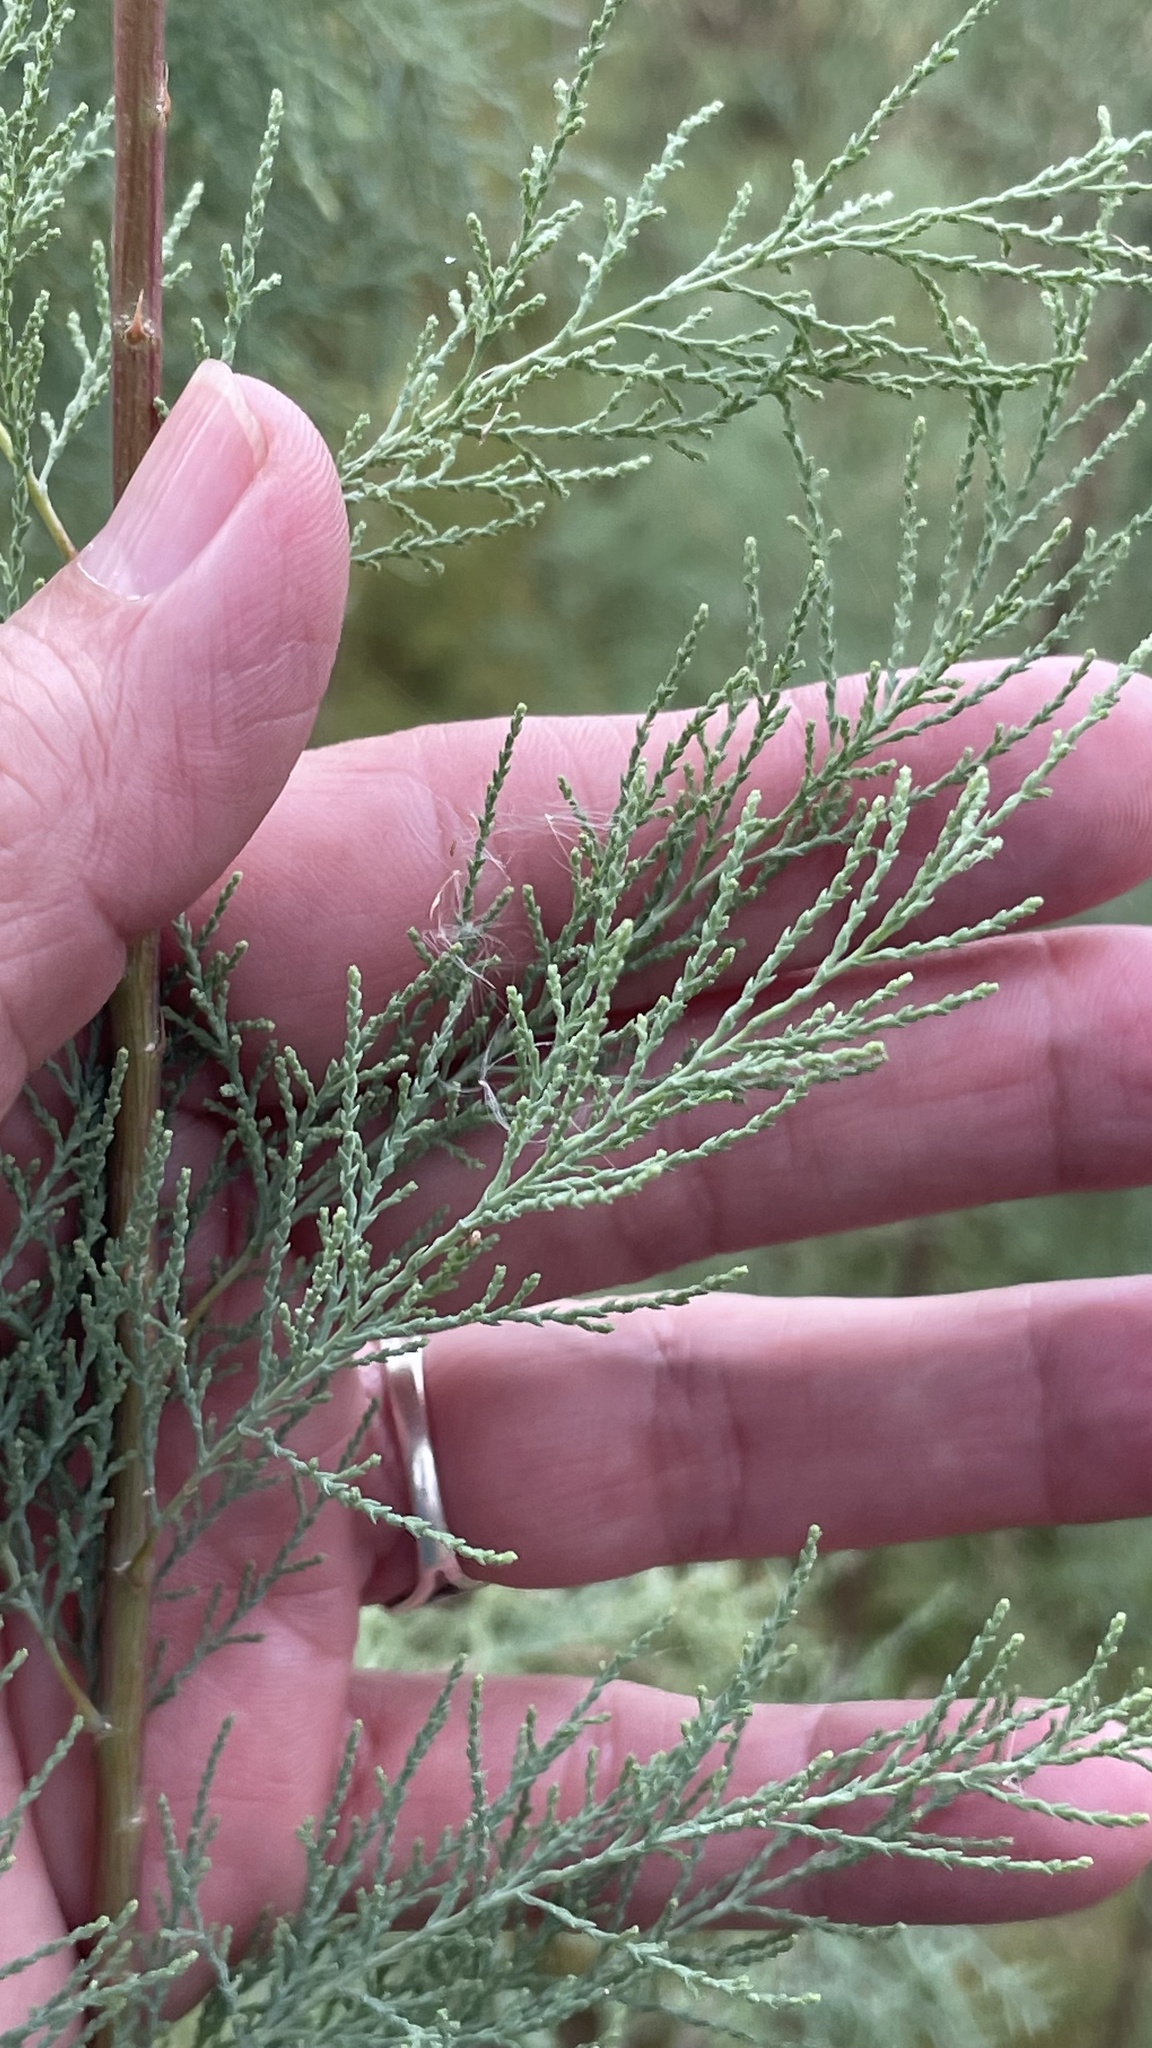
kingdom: Plantae
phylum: Tracheophyta
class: Magnoliopsida
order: Caryophyllales
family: Tamaricaceae
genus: Tamarix
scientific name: Tamarix ramosissima
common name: Pink tamarisk
